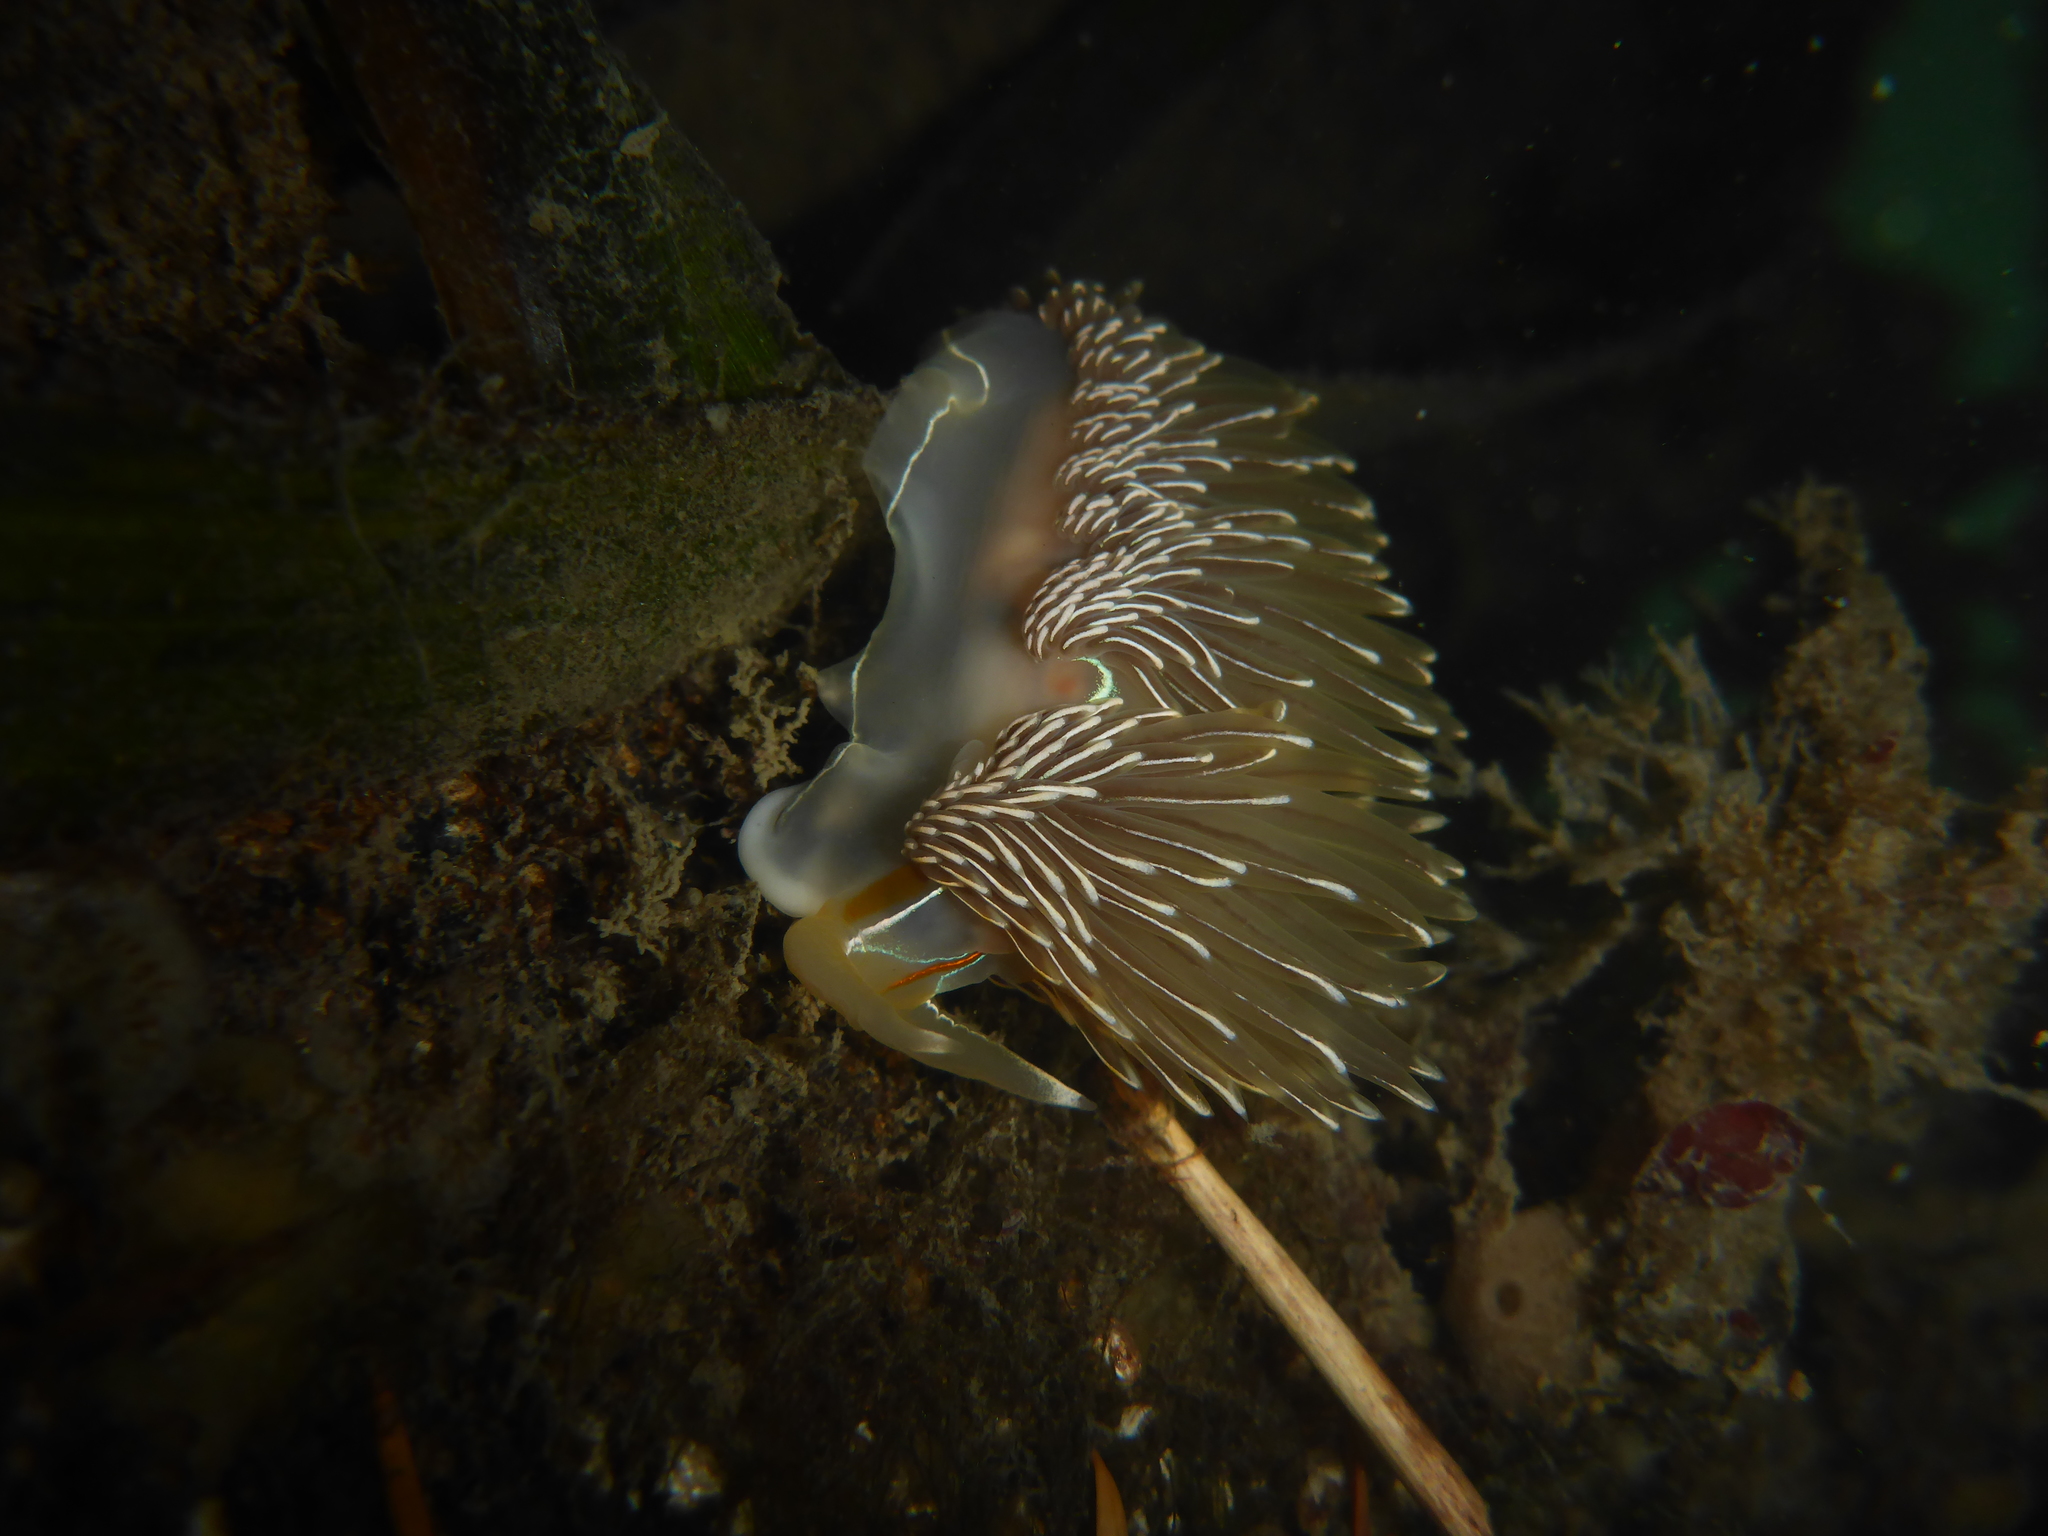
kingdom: Animalia
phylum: Mollusca
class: Gastropoda
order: Nudibranchia
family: Myrrhinidae
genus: Hermissenda
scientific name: Hermissenda crassicornis
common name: Hermissenda
